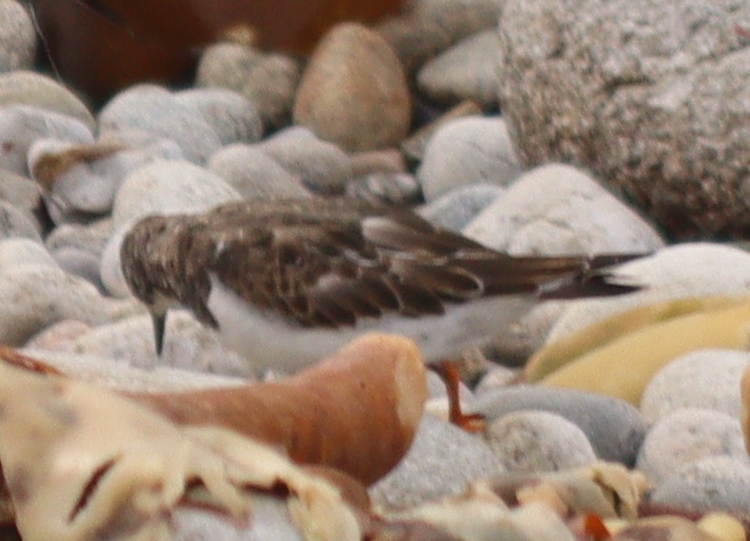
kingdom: Animalia
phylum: Chordata
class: Aves
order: Charadriiformes
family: Scolopacidae
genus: Arenaria
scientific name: Arenaria interpres
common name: Ruddy turnstone
